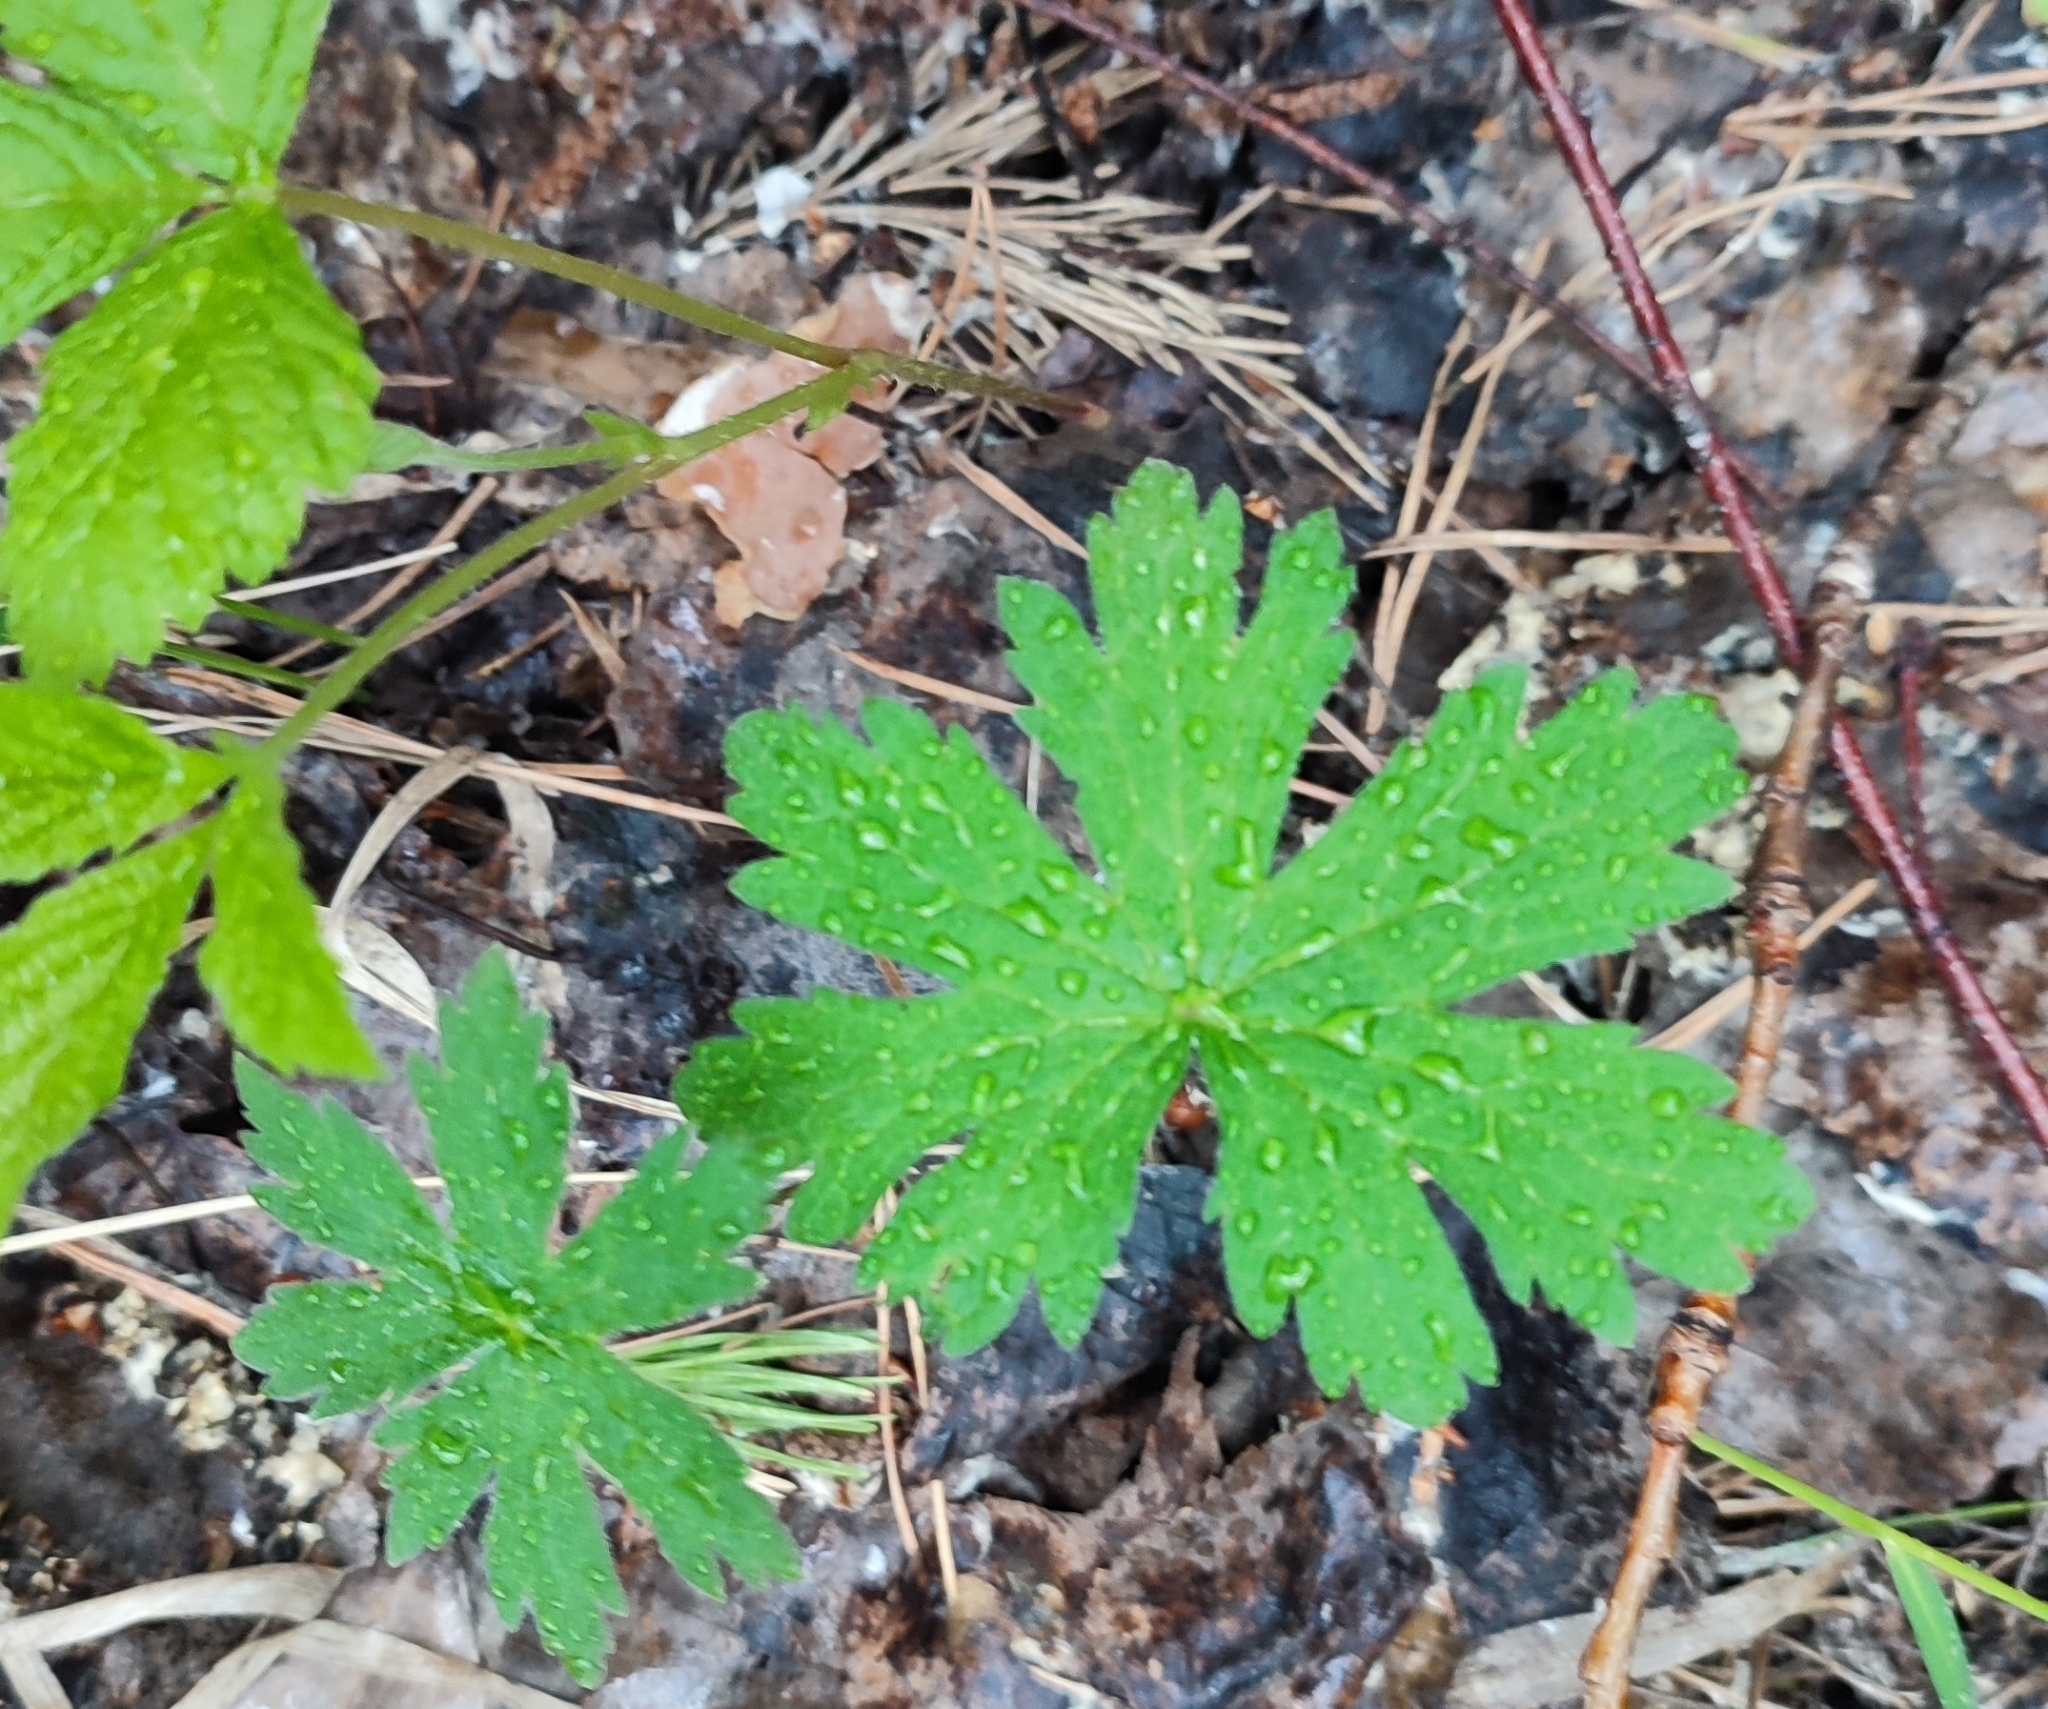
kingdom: Plantae
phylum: Tracheophyta
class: Magnoliopsida
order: Geraniales
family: Geraniaceae
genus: Geranium
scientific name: Geranium sylvaticum
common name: Wood crane's-bill
